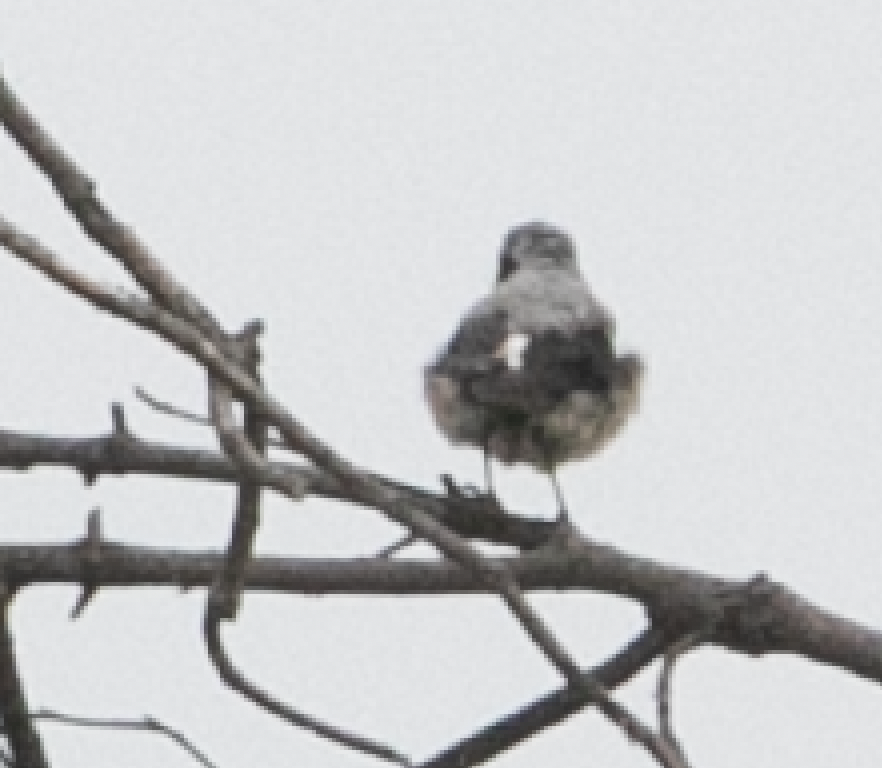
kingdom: Animalia
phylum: Chordata
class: Aves
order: Passeriformes
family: Muscicapidae
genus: Oenanthe
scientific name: Oenanthe oenanthe
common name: Northern wheatear
